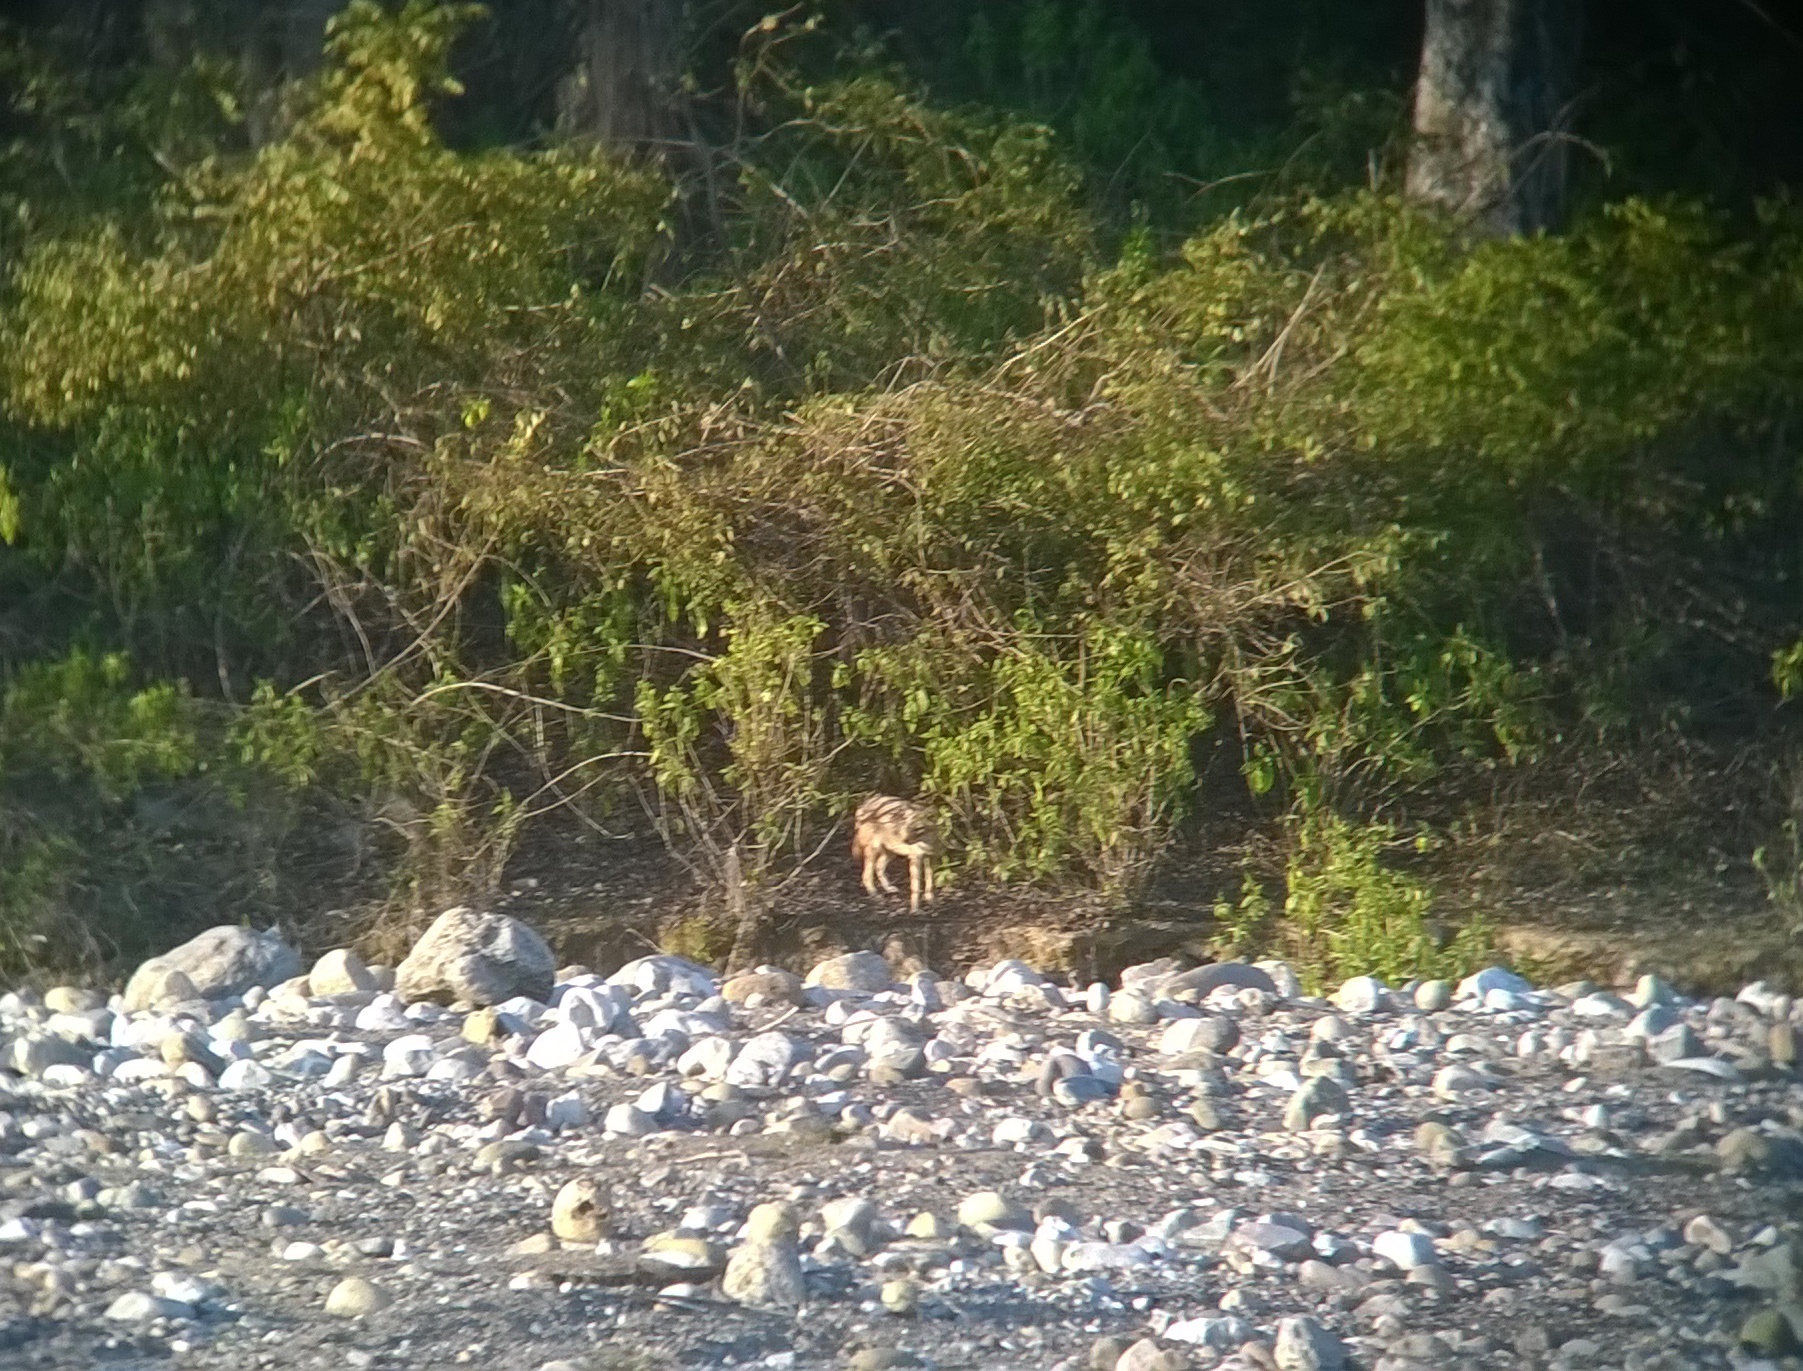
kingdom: Animalia
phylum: Chordata
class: Mammalia
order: Carnivora
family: Canidae
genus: Canis
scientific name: Canis aureus
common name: Golden jackal
